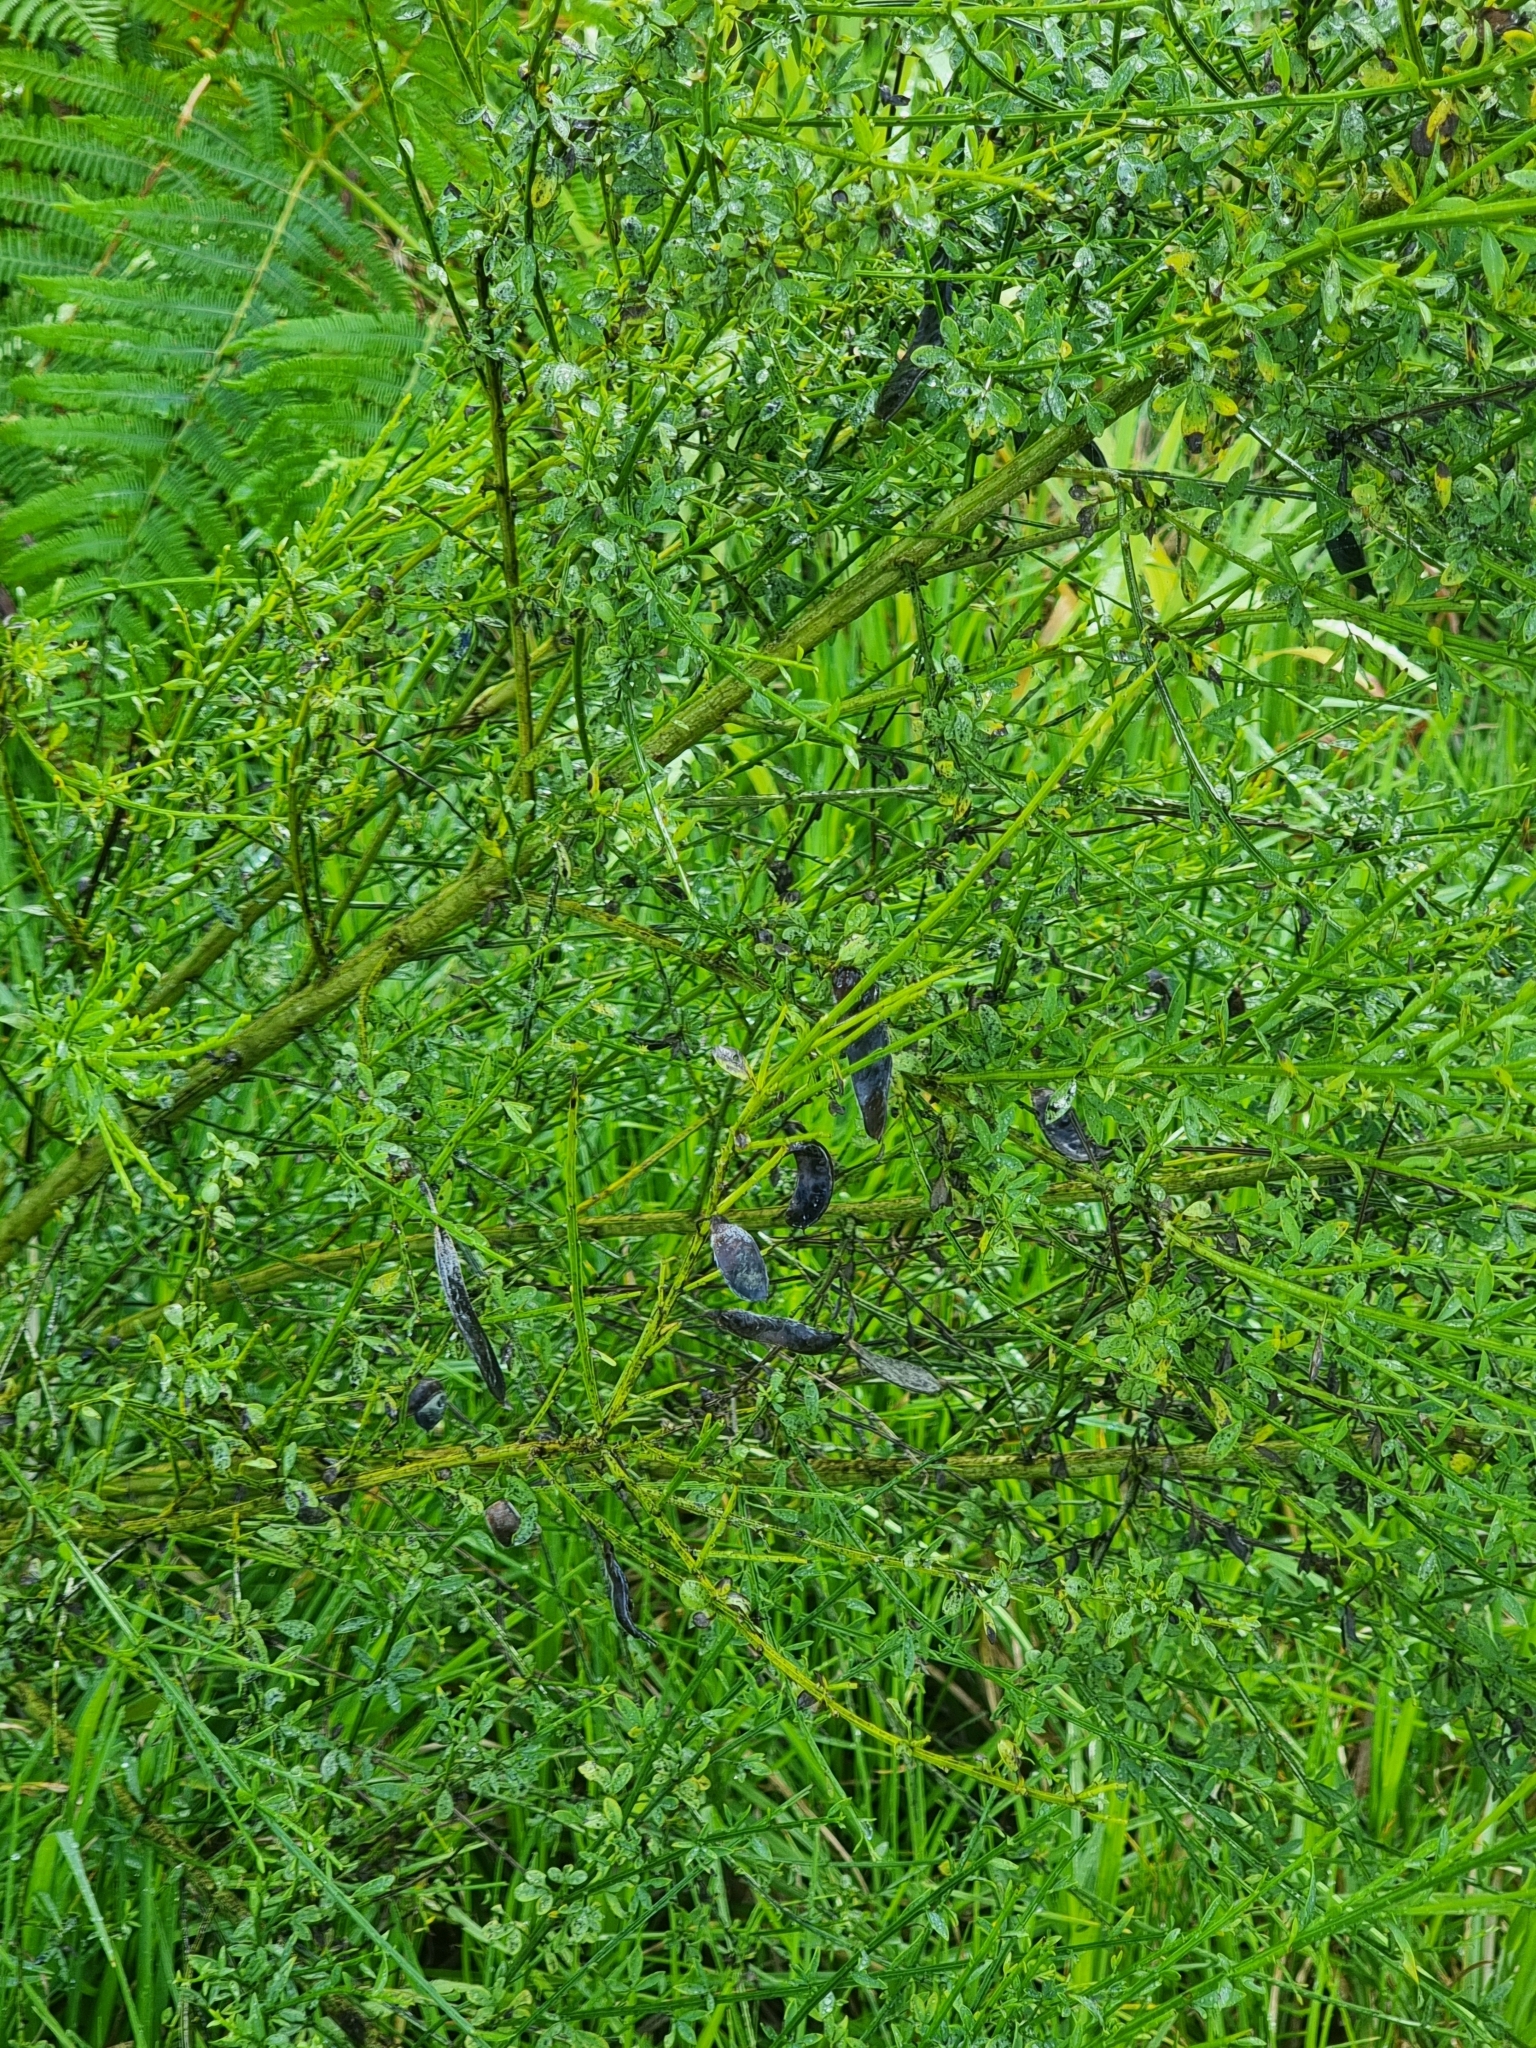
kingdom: Plantae
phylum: Tracheophyta
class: Magnoliopsida
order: Fabales
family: Fabaceae
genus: Cytisus
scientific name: Cytisus striatus
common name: Hairy-fruited broom
